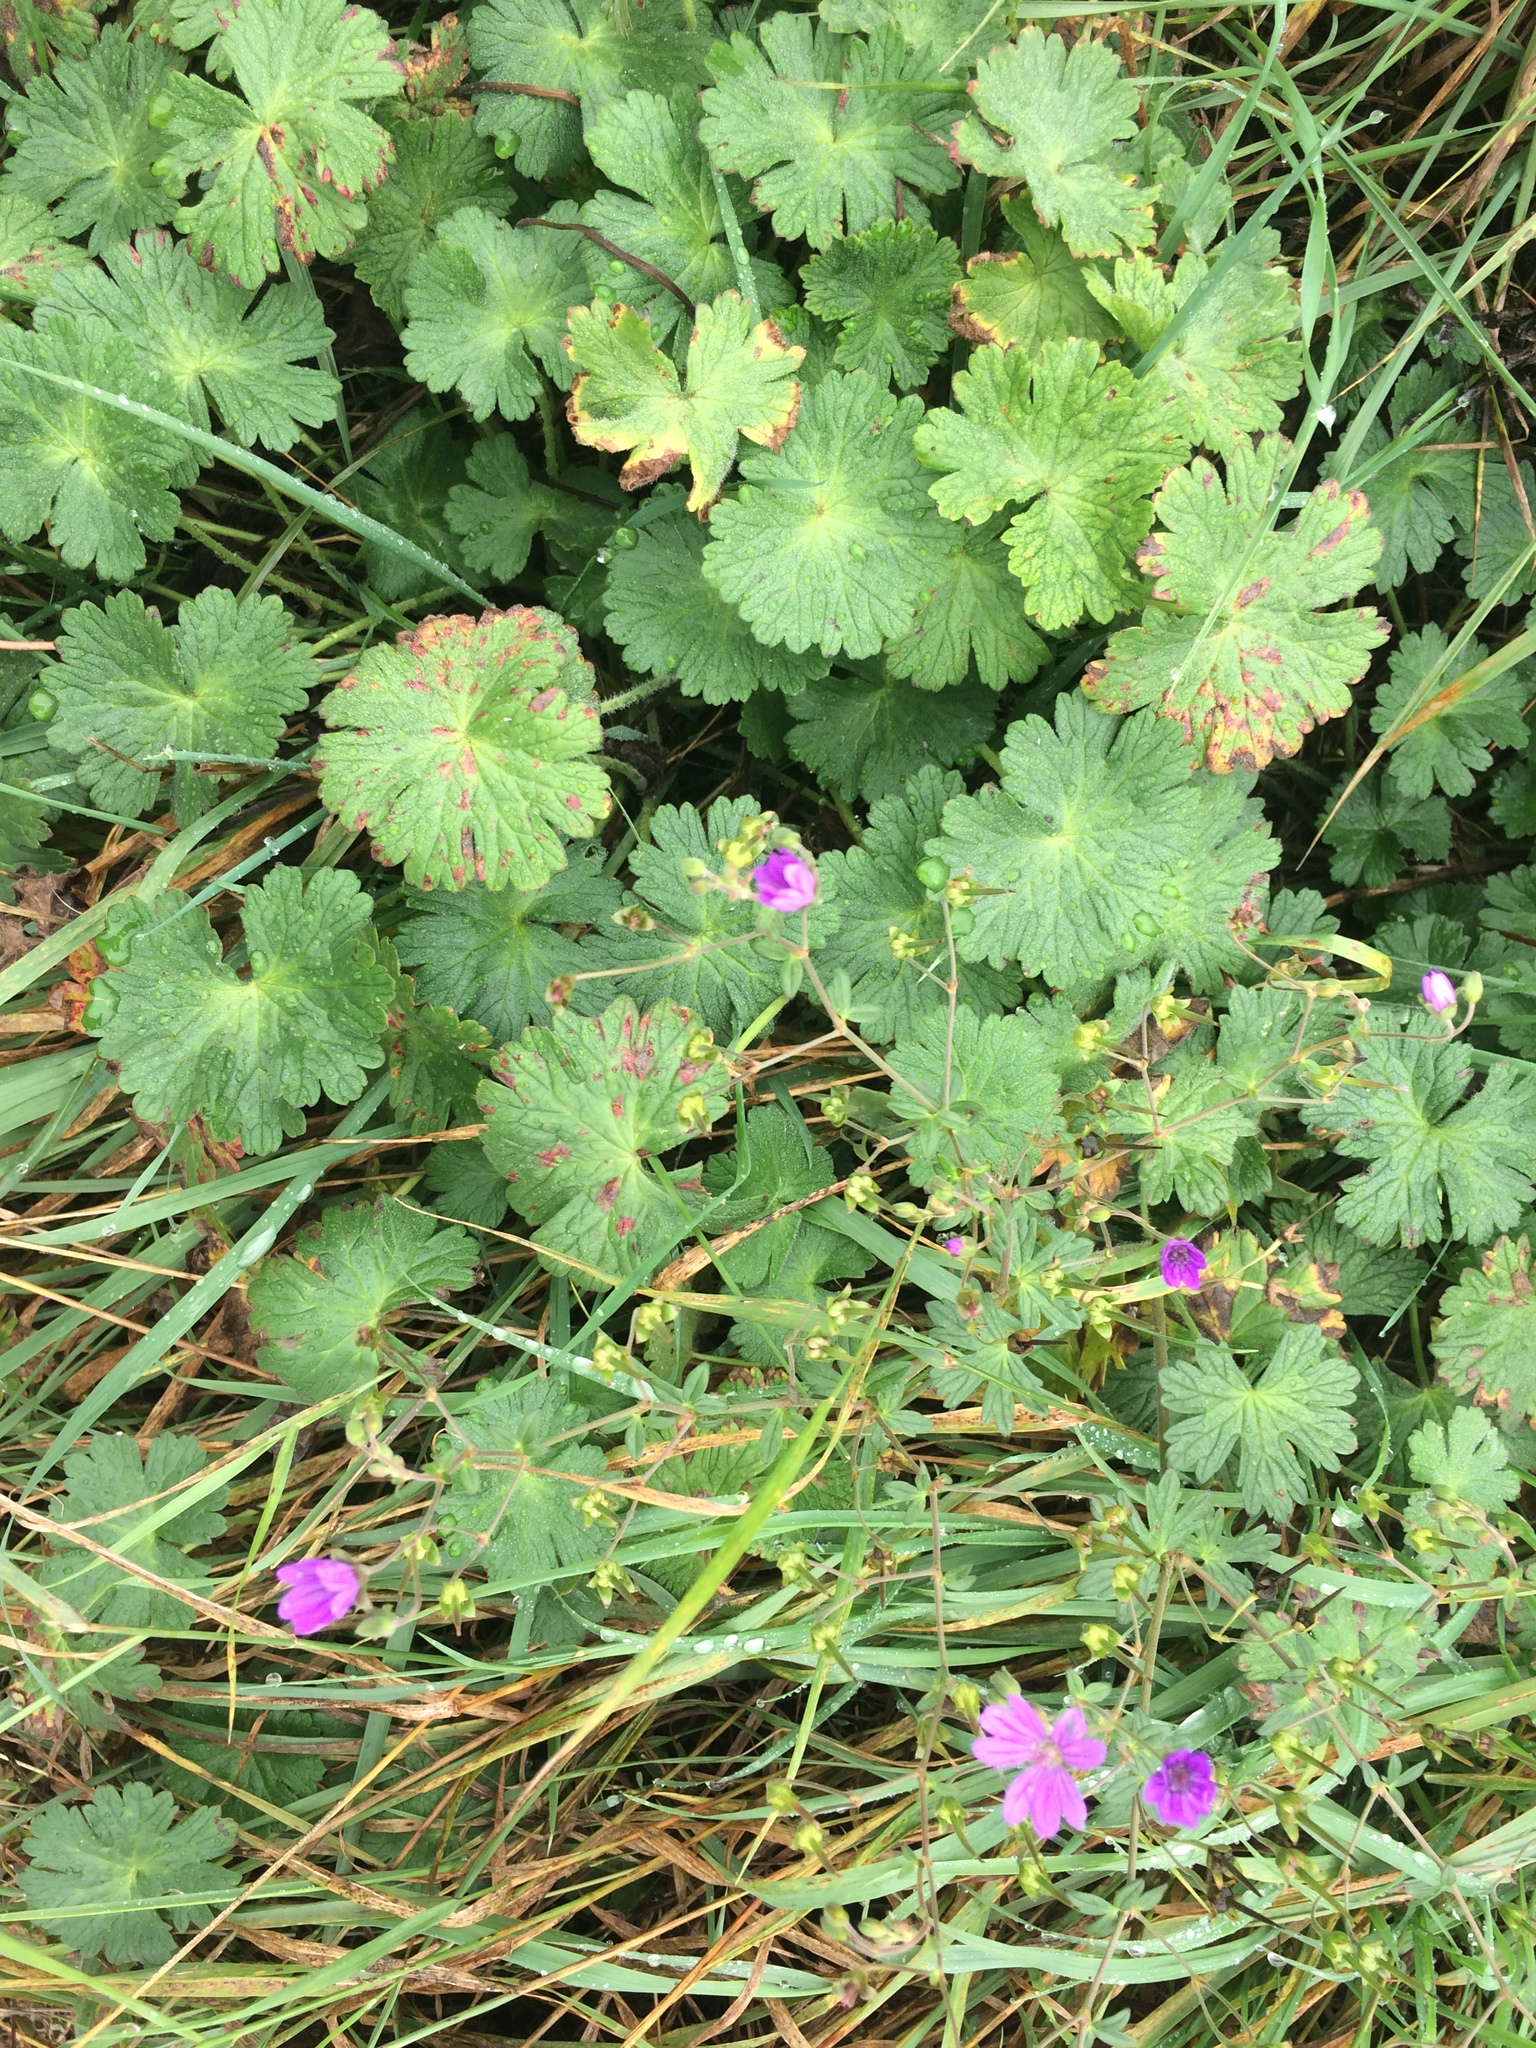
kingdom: Plantae
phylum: Tracheophyta
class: Magnoliopsida
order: Geraniales
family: Geraniaceae
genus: Geranium
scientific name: Geranium pyrenaicum
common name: Hedgerow crane's-bill
